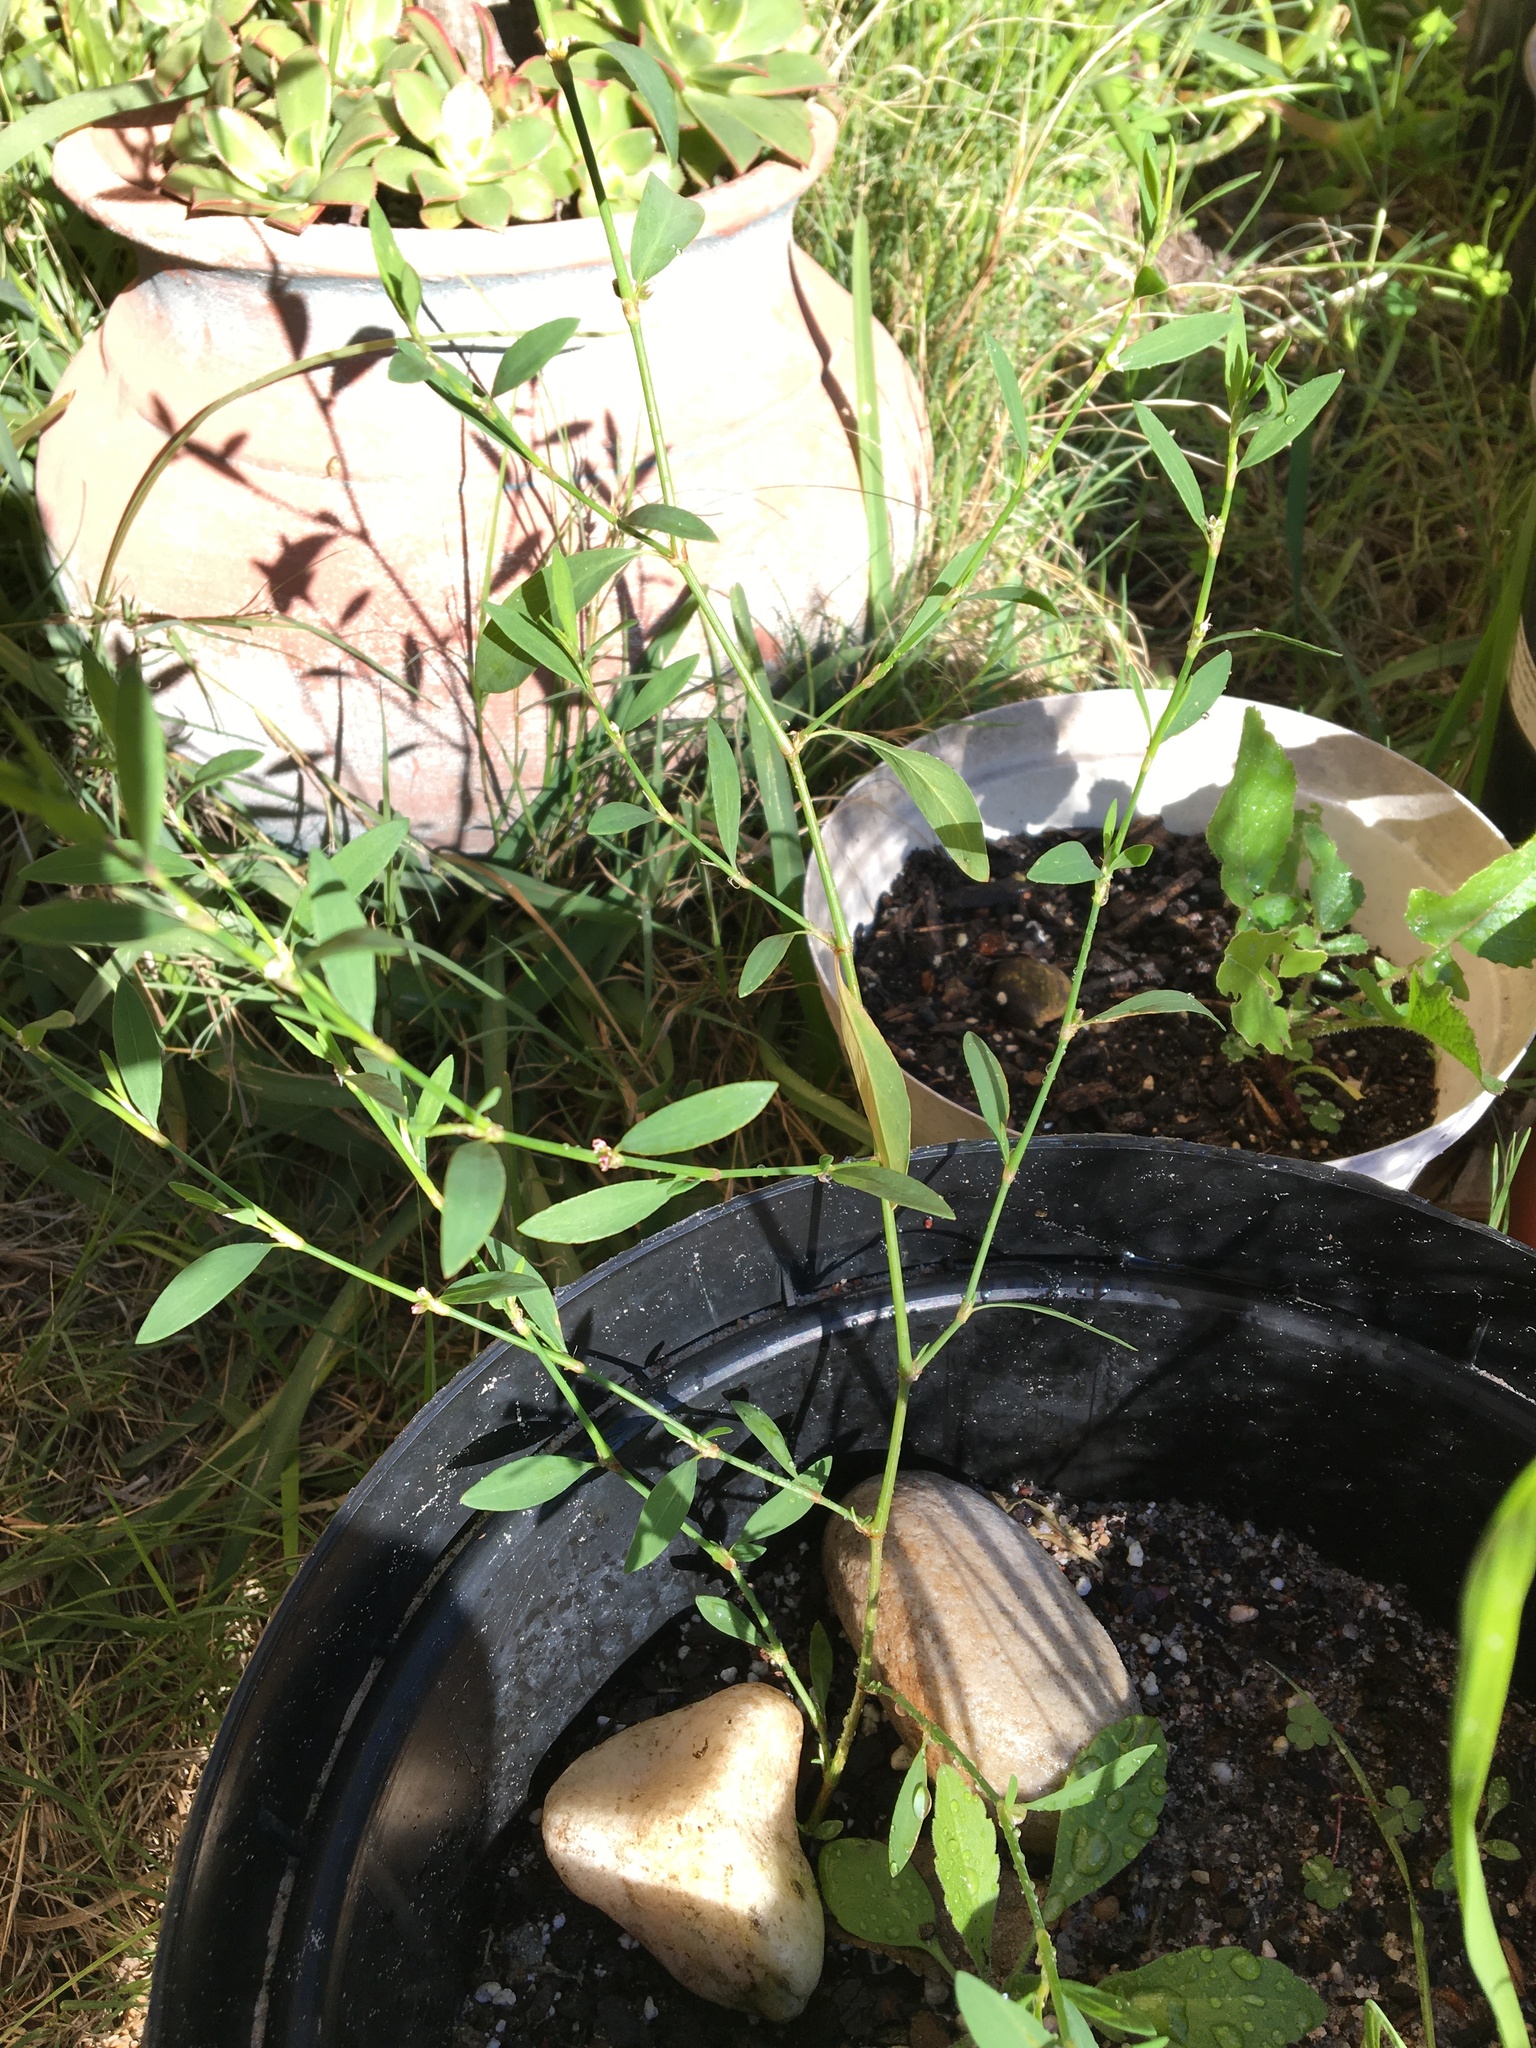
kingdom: Plantae
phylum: Tracheophyta
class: Magnoliopsida
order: Caryophyllales
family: Polygonaceae
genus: Polygonum
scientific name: Polygonum aviculare
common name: Prostrate knotweed
